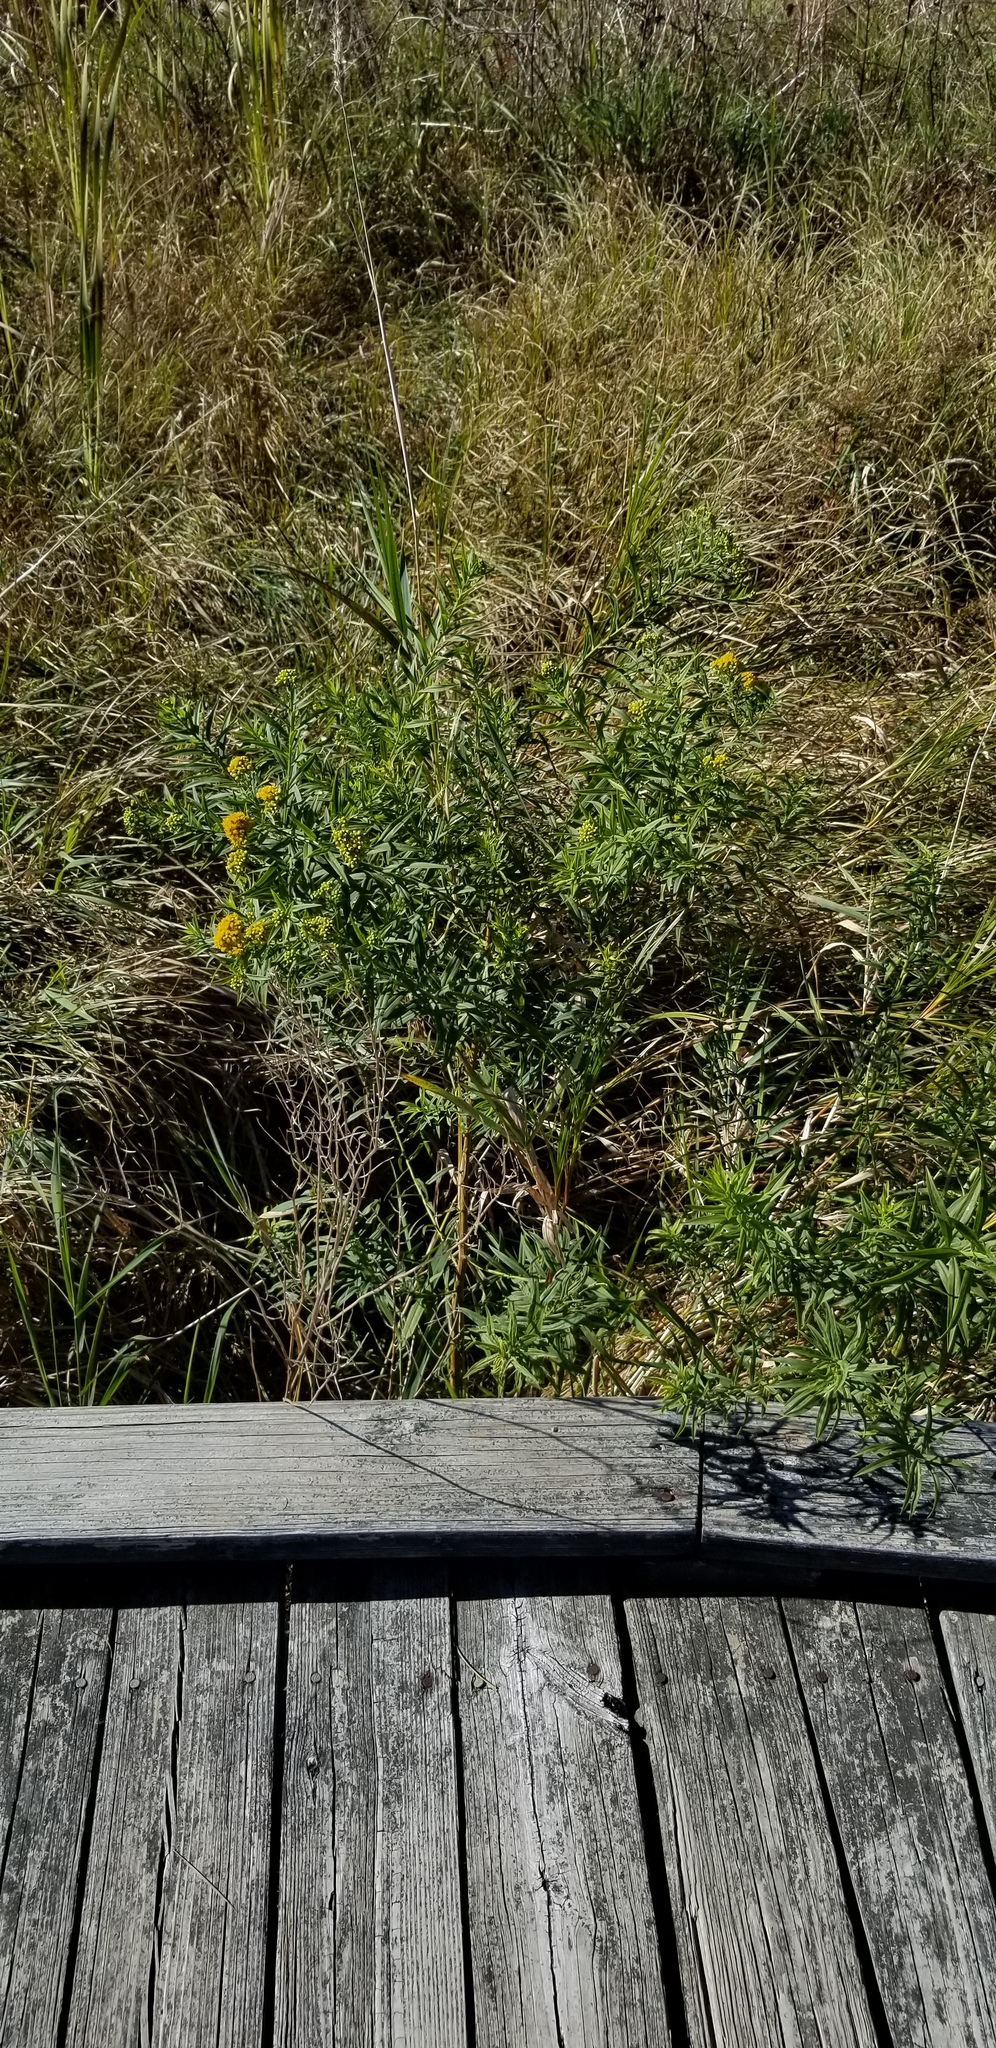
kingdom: Plantae
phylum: Tracheophyta
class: Magnoliopsida
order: Asterales
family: Asteraceae
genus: Euthamia
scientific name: Euthamia graminifolia
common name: Common goldentop
